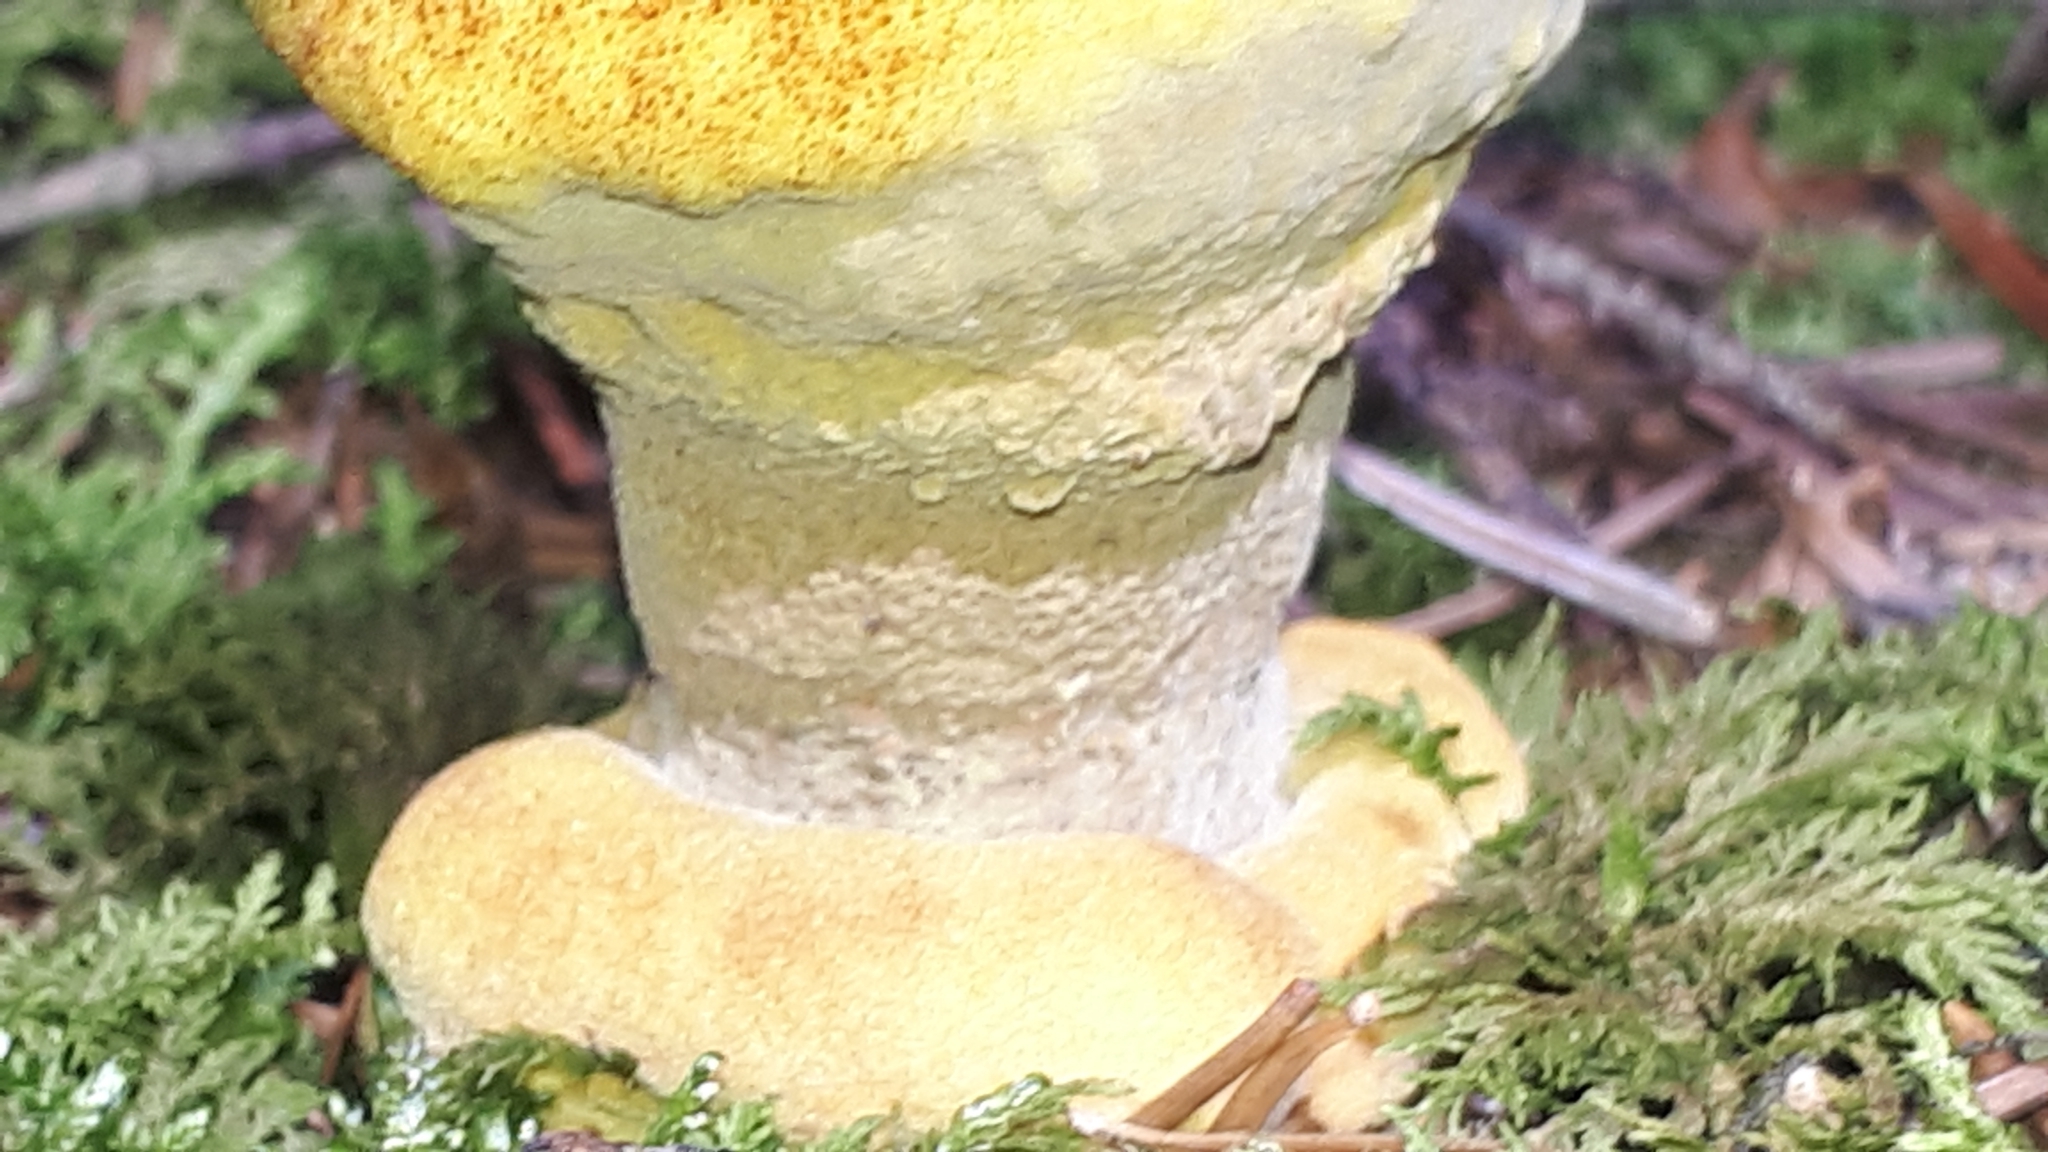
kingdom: Fungi
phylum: Basidiomycota
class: Agaricomycetes
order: Polyporales
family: Laetiporaceae
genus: Phaeolus
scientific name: Phaeolus schweinitzii
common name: Dyer's mazegill
